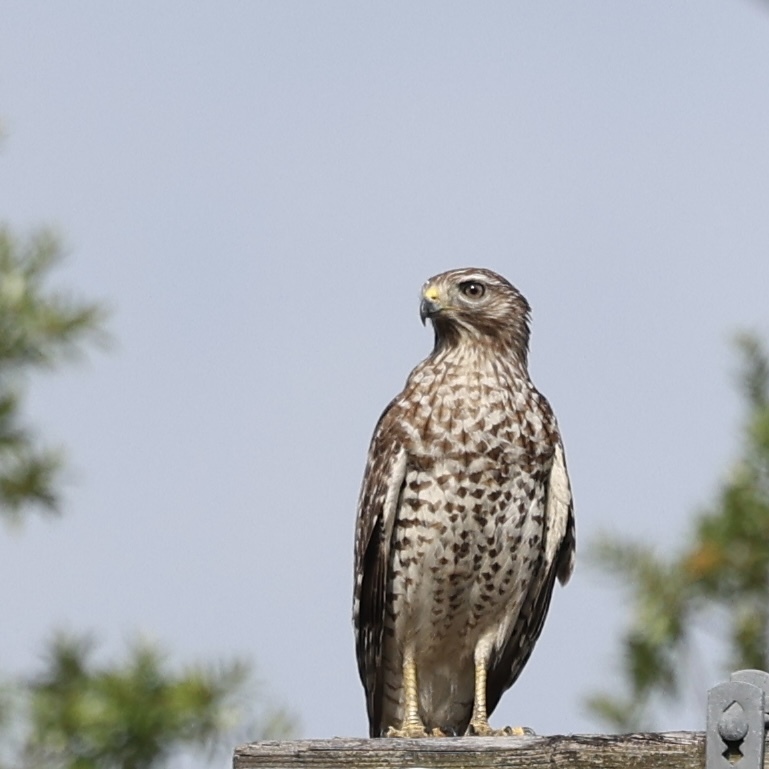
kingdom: Animalia
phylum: Chordata
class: Aves
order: Accipitriformes
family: Accipitridae
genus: Buteo
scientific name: Buteo lineatus
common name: Red-shouldered hawk
